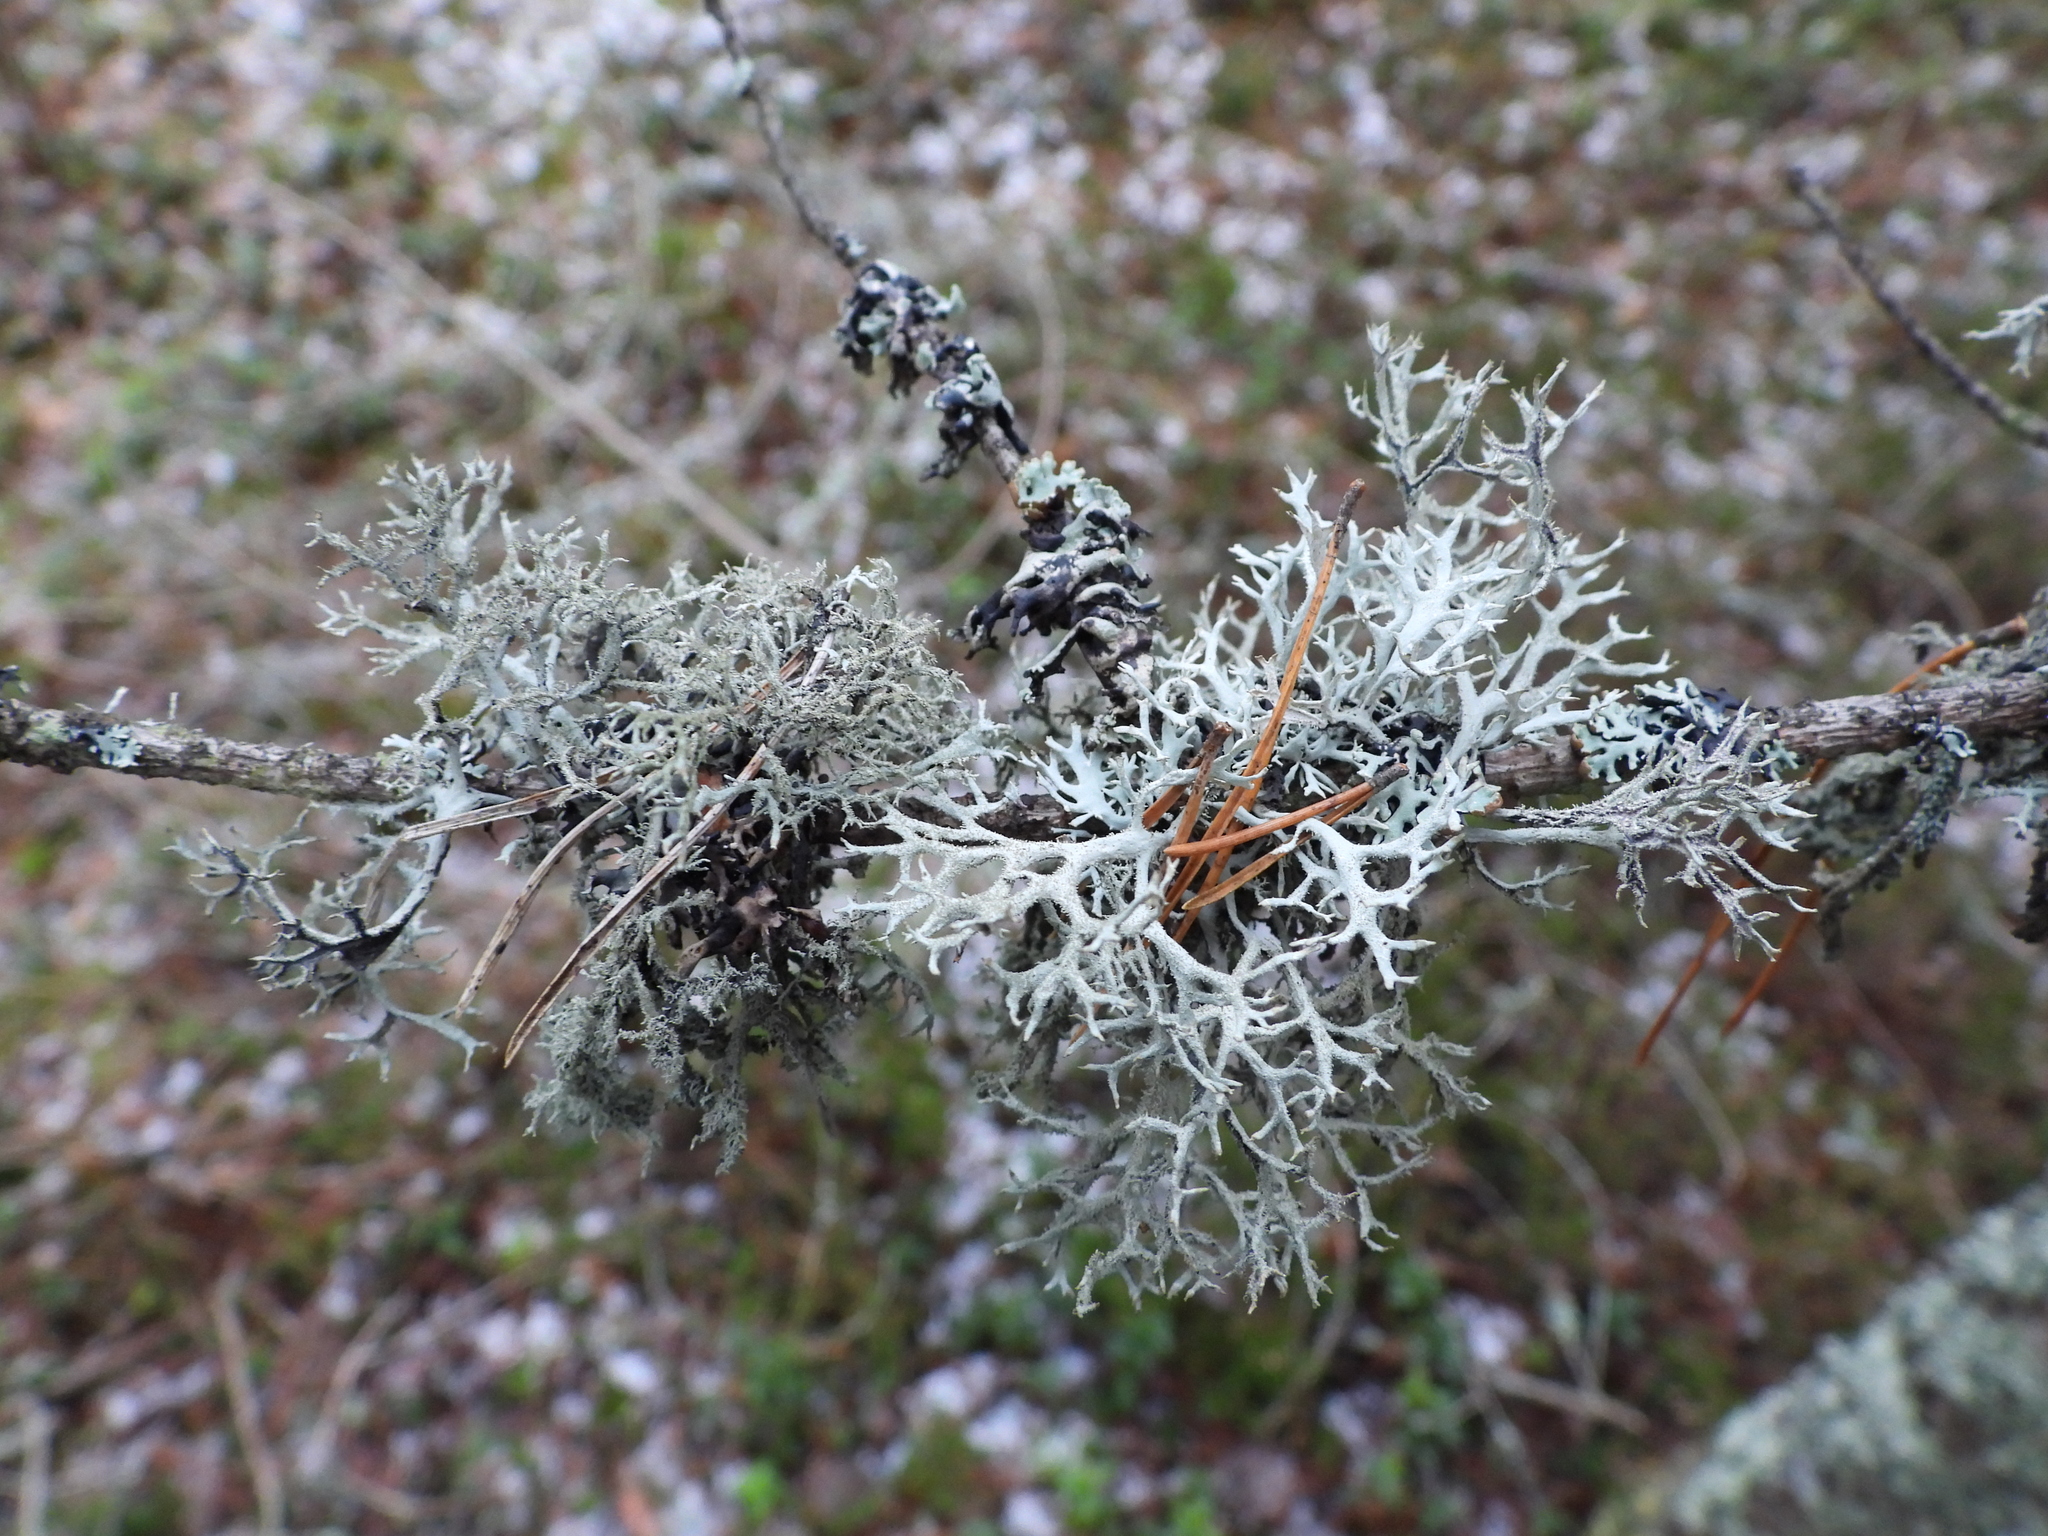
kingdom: Fungi
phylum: Ascomycota
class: Lecanoromycetes
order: Lecanorales
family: Parmeliaceae
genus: Pseudevernia
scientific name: Pseudevernia furfuracea
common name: Tree moss
